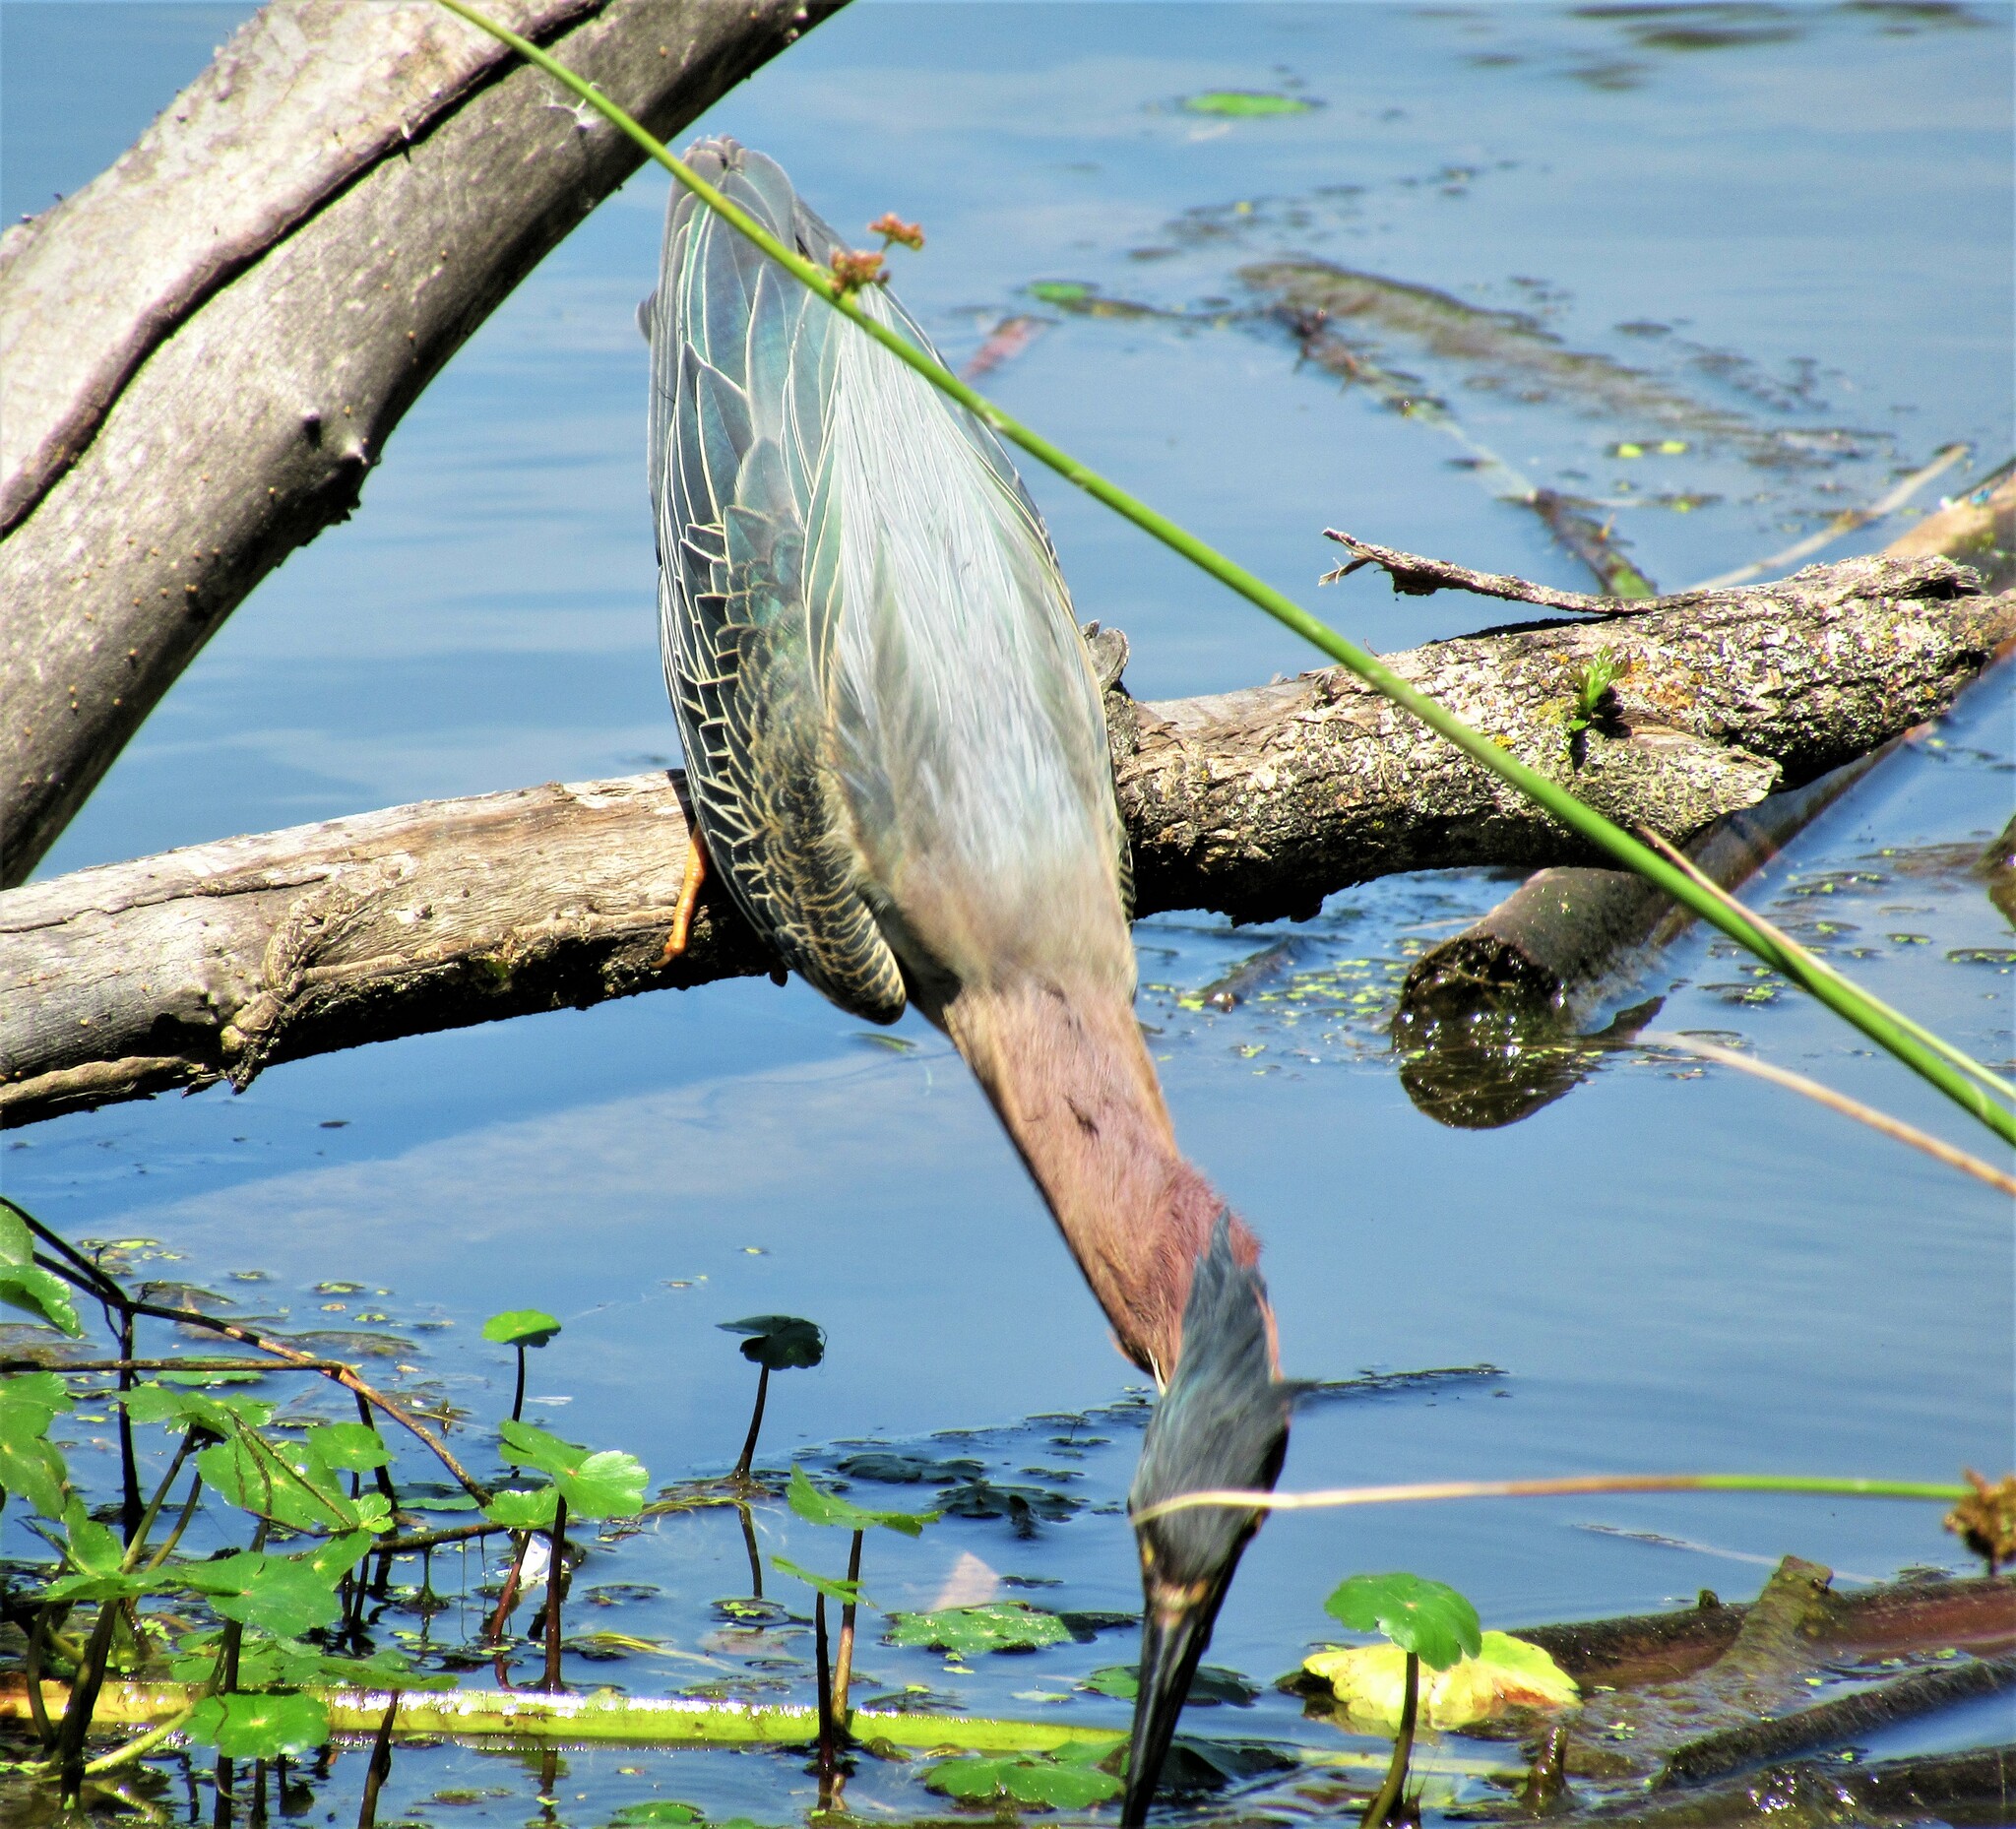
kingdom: Animalia
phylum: Chordata
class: Aves
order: Pelecaniformes
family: Ardeidae
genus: Butorides
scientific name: Butorides virescens
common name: Green heron
